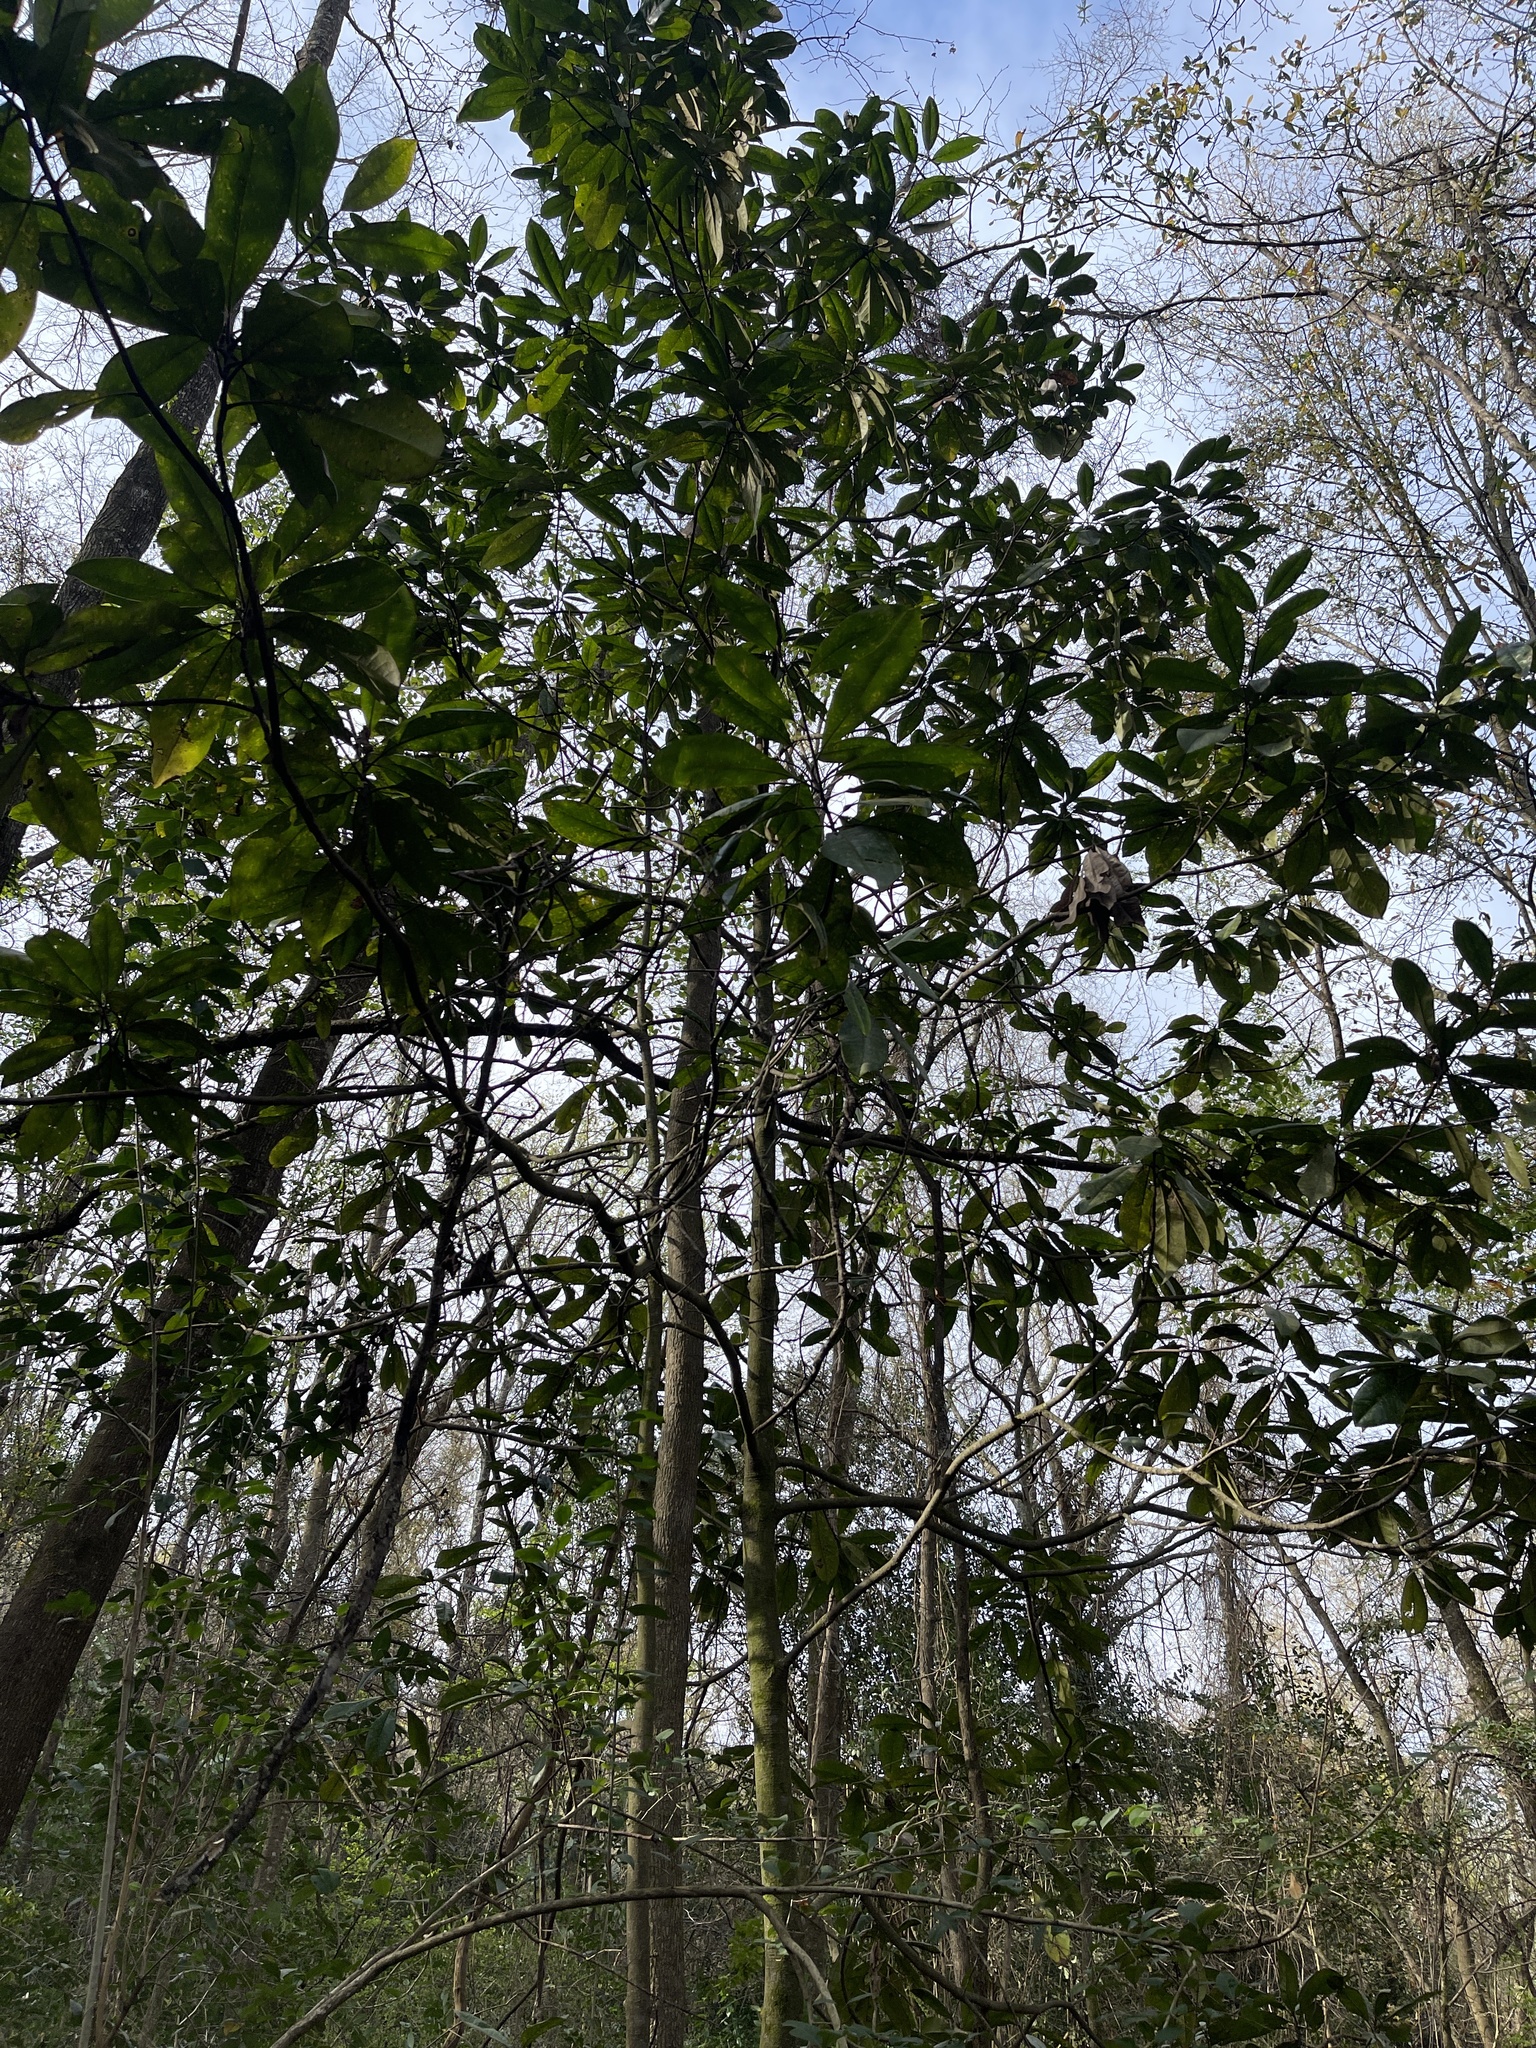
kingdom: Plantae
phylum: Tracheophyta
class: Magnoliopsida
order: Magnoliales
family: Magnoliaceae
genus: Magnolia
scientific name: Magnolia grandiflora
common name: Southern magnolia
